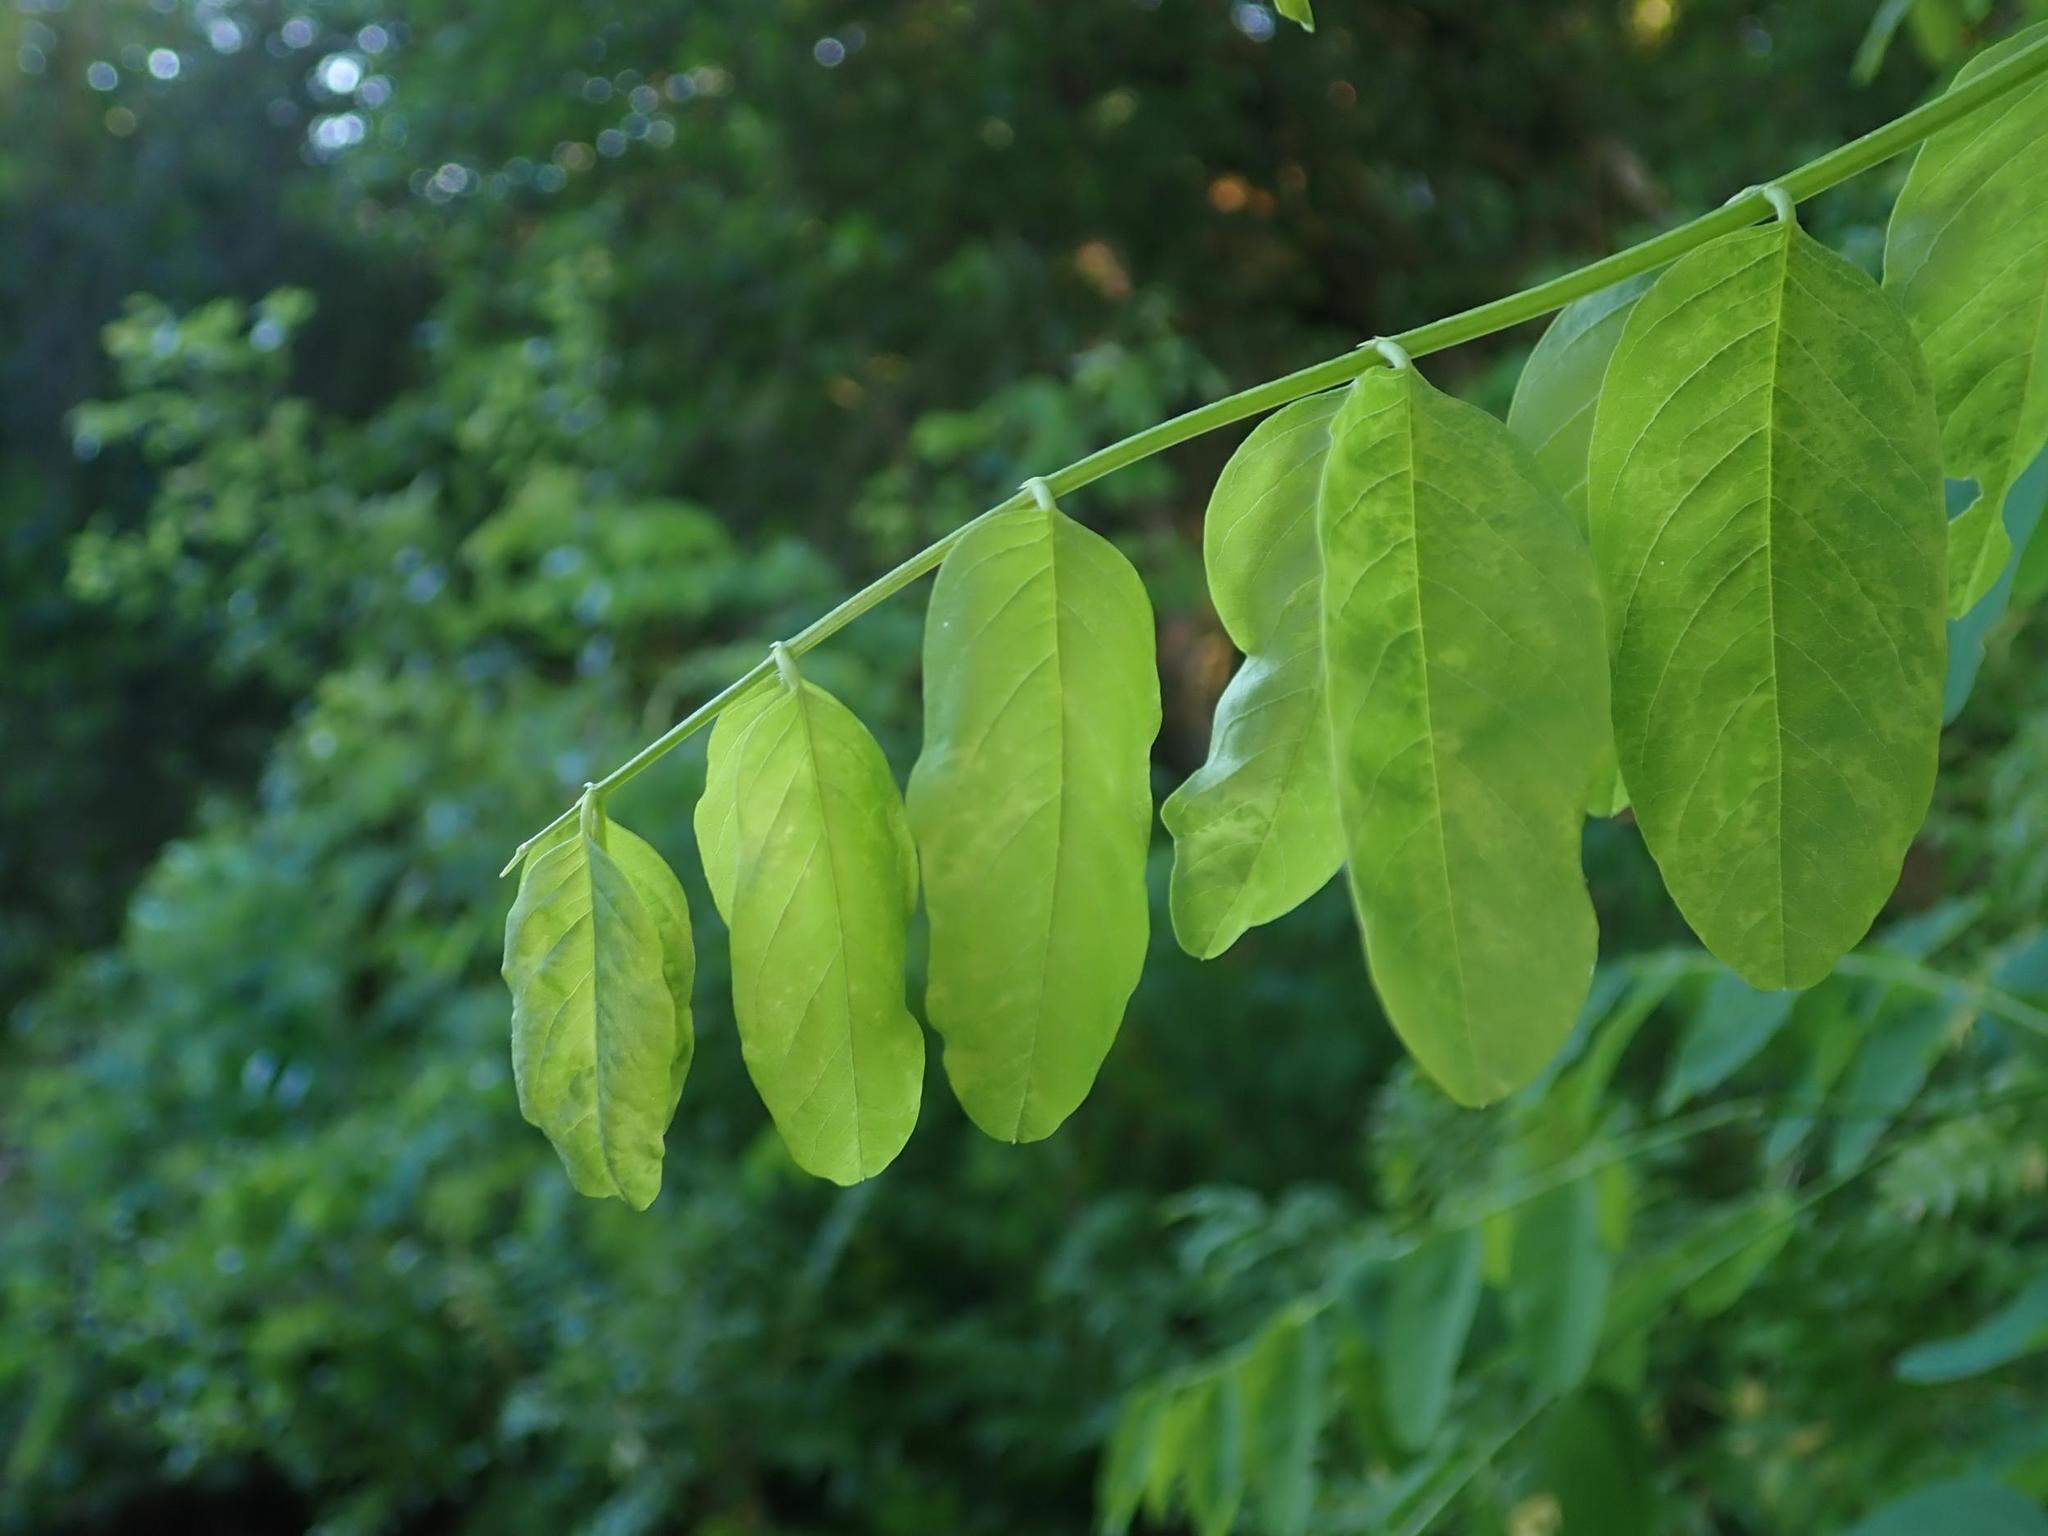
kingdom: Plantae
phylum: Tracheophyta
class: Magnoliopsida
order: Fabales
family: Fabaceae
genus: Robinia
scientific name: Robinia pseudoacacia
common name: Black locust
